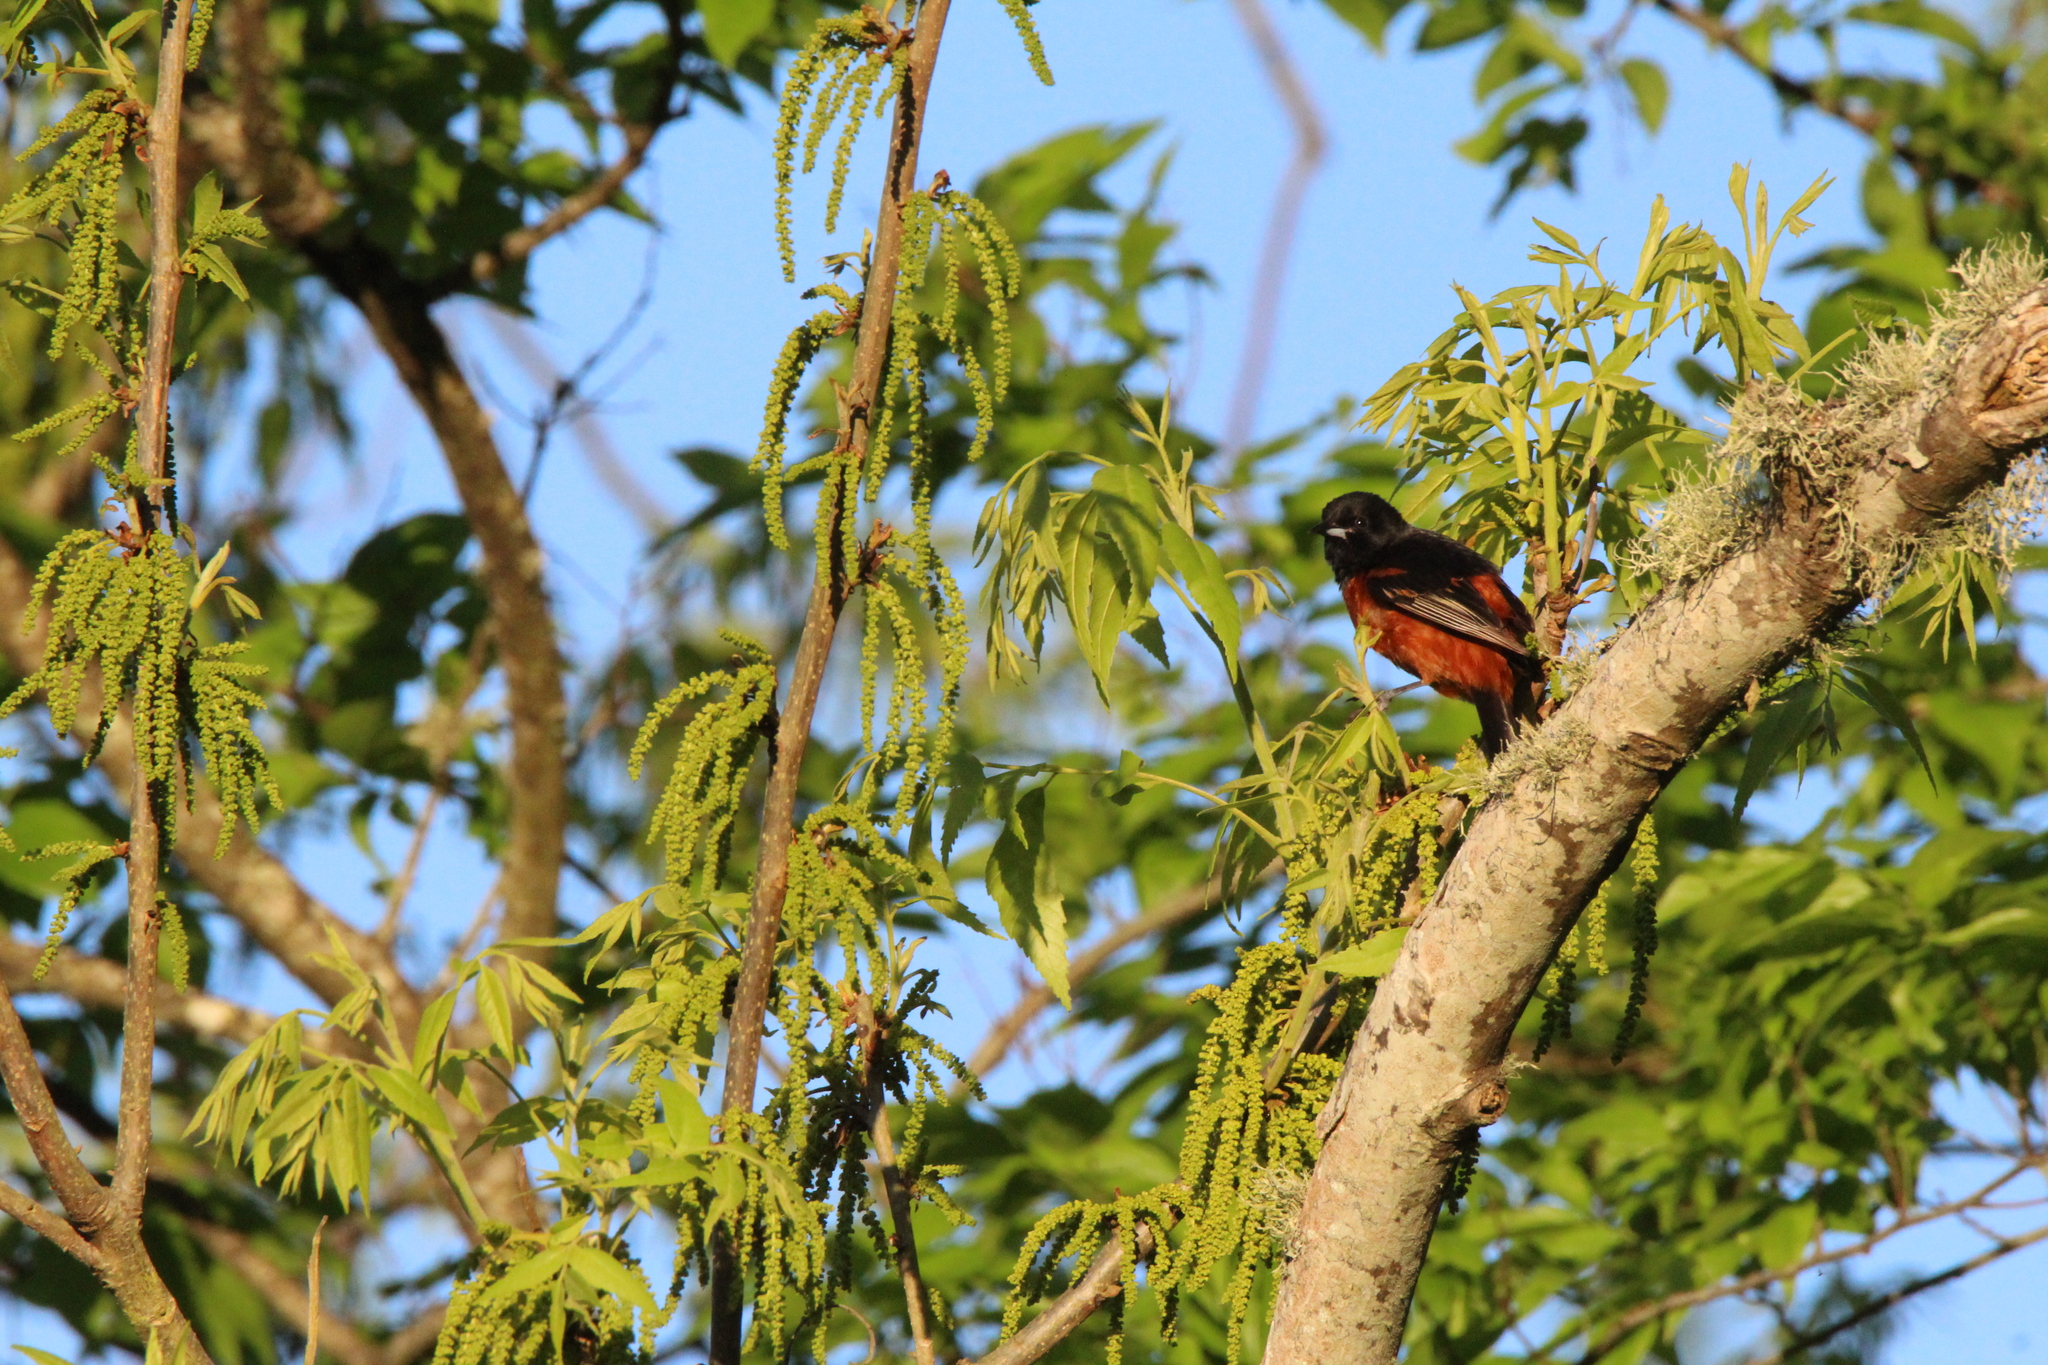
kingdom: Animalia
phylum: Chordata
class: Aves
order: Passeriformes
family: Icteridae
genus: Icterus
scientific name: Icterus spurius
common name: Orchard oriole
